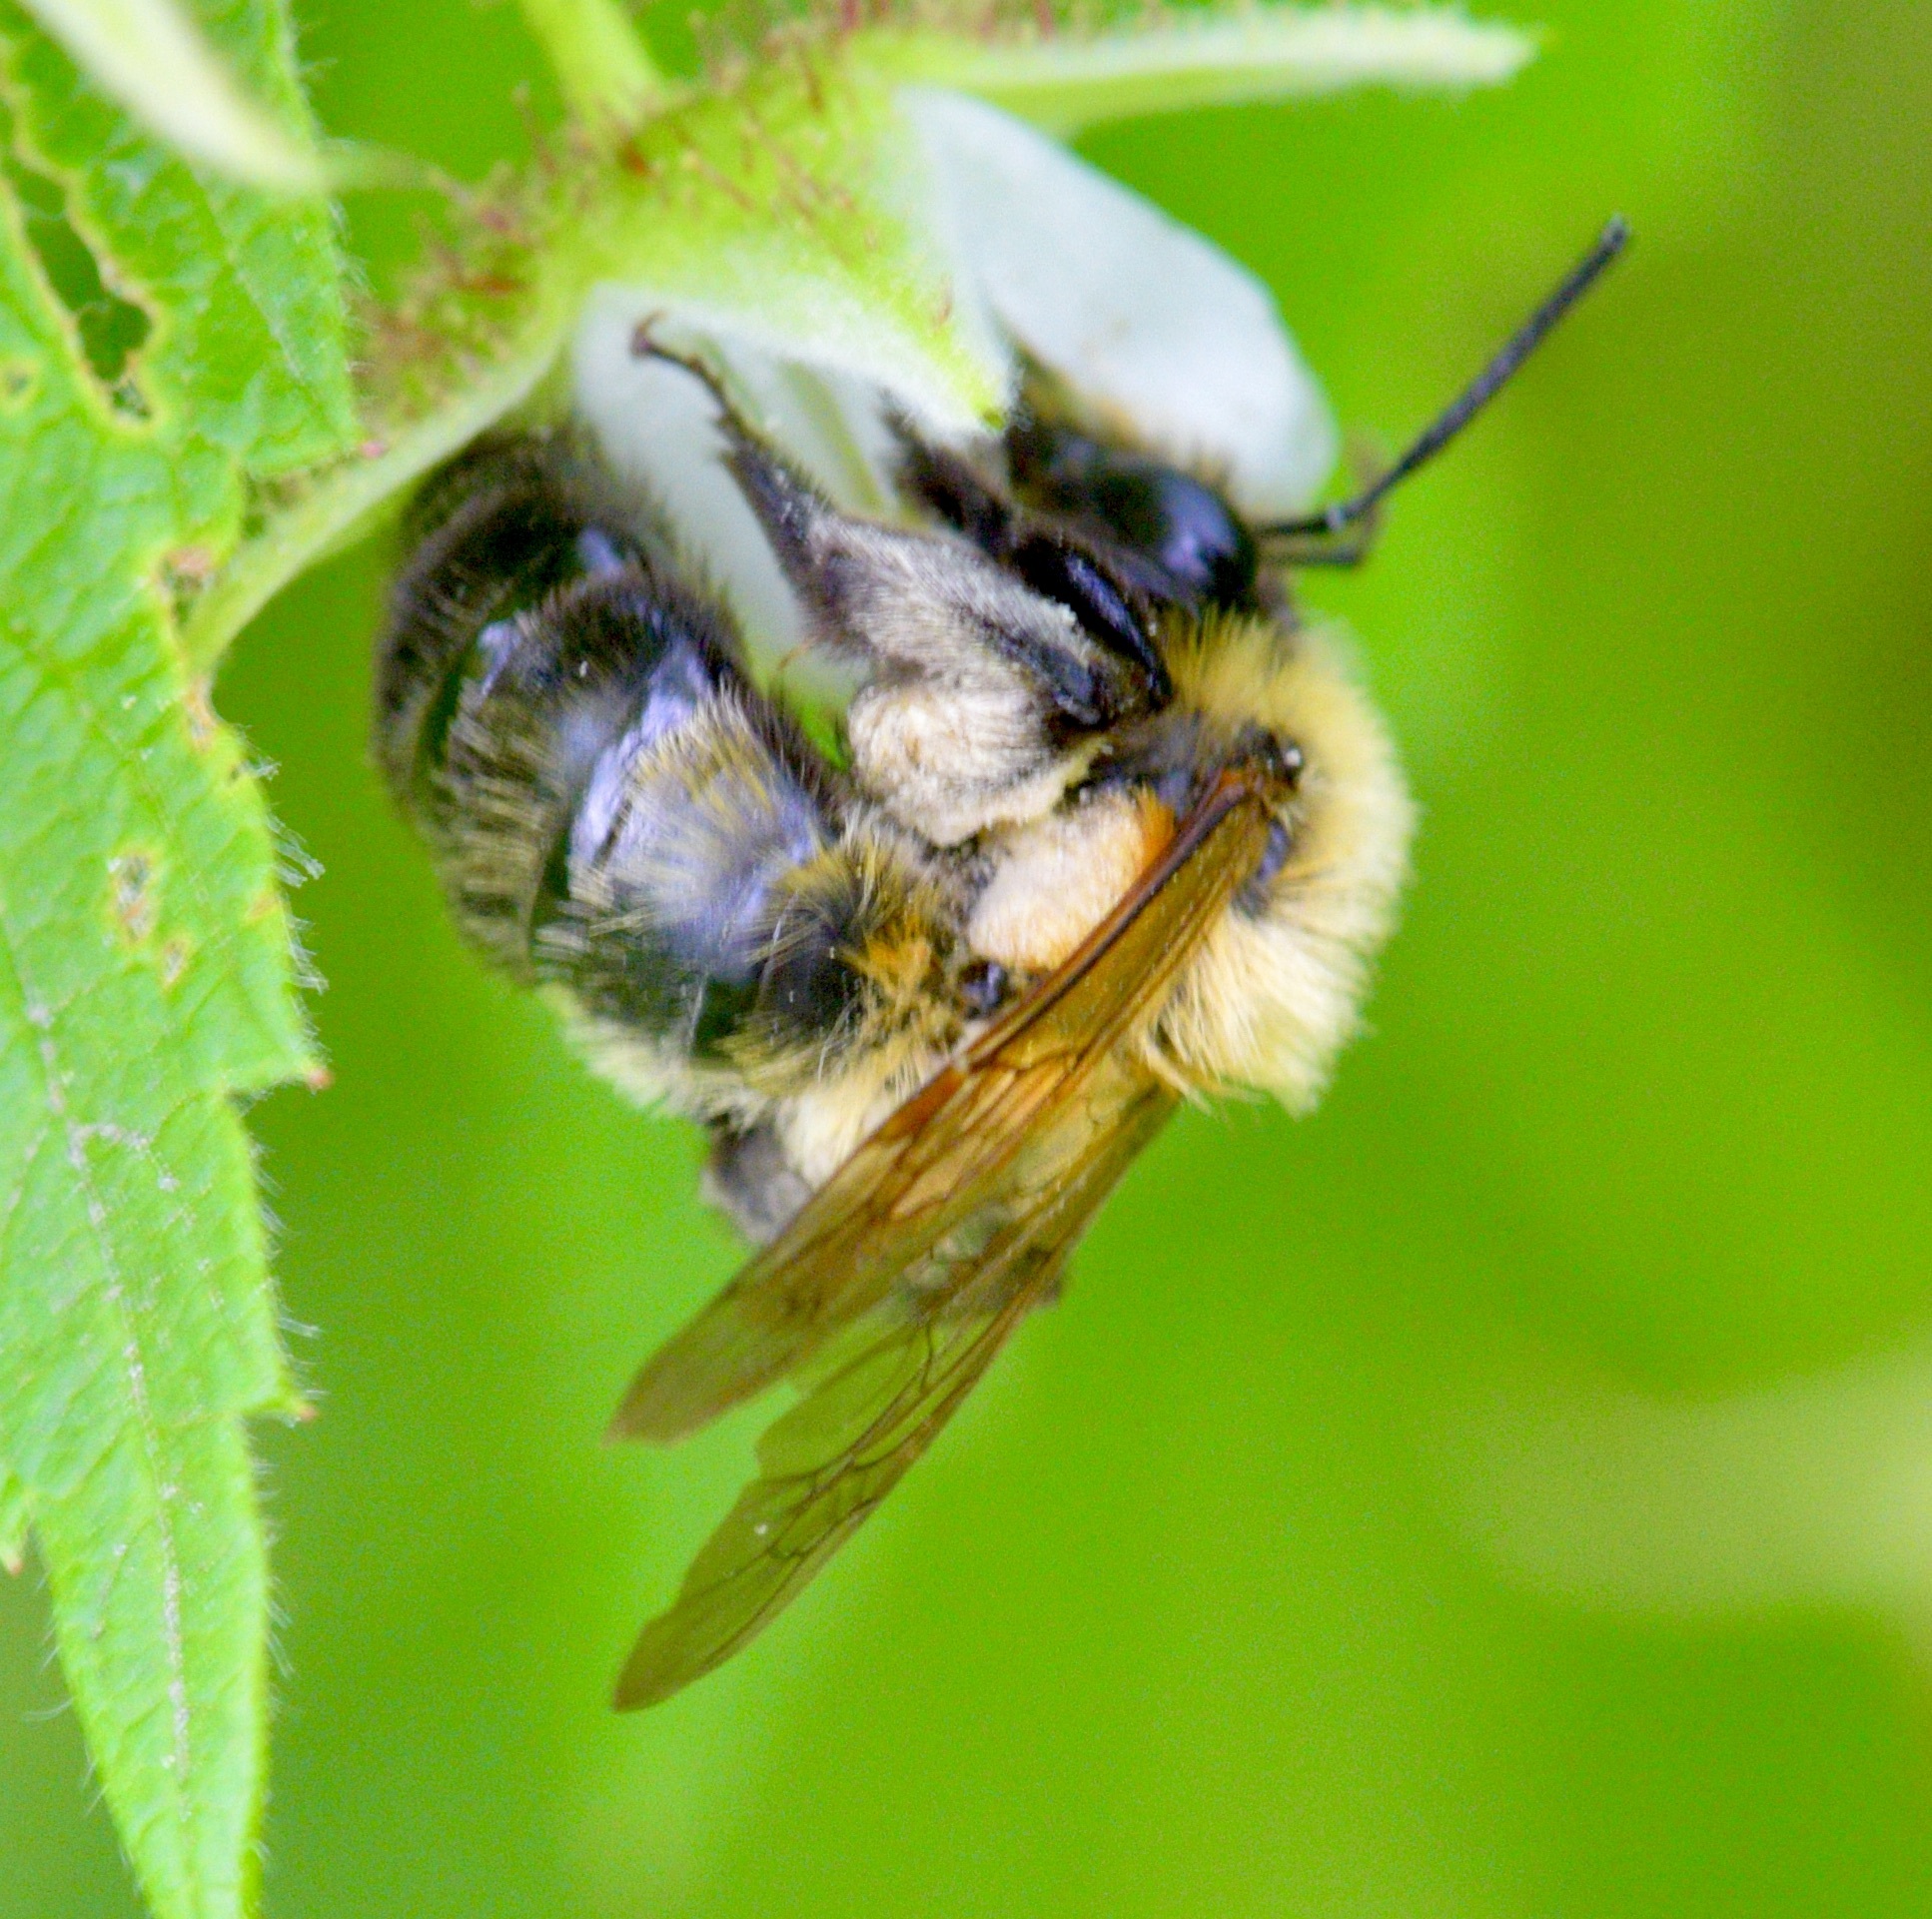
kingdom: Animalia
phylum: Arthropoda
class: Insecta
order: Hymenoptera
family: Andrenidae
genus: Andrena
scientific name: Andrena milwaukeensis
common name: Milwaukee mining bee
